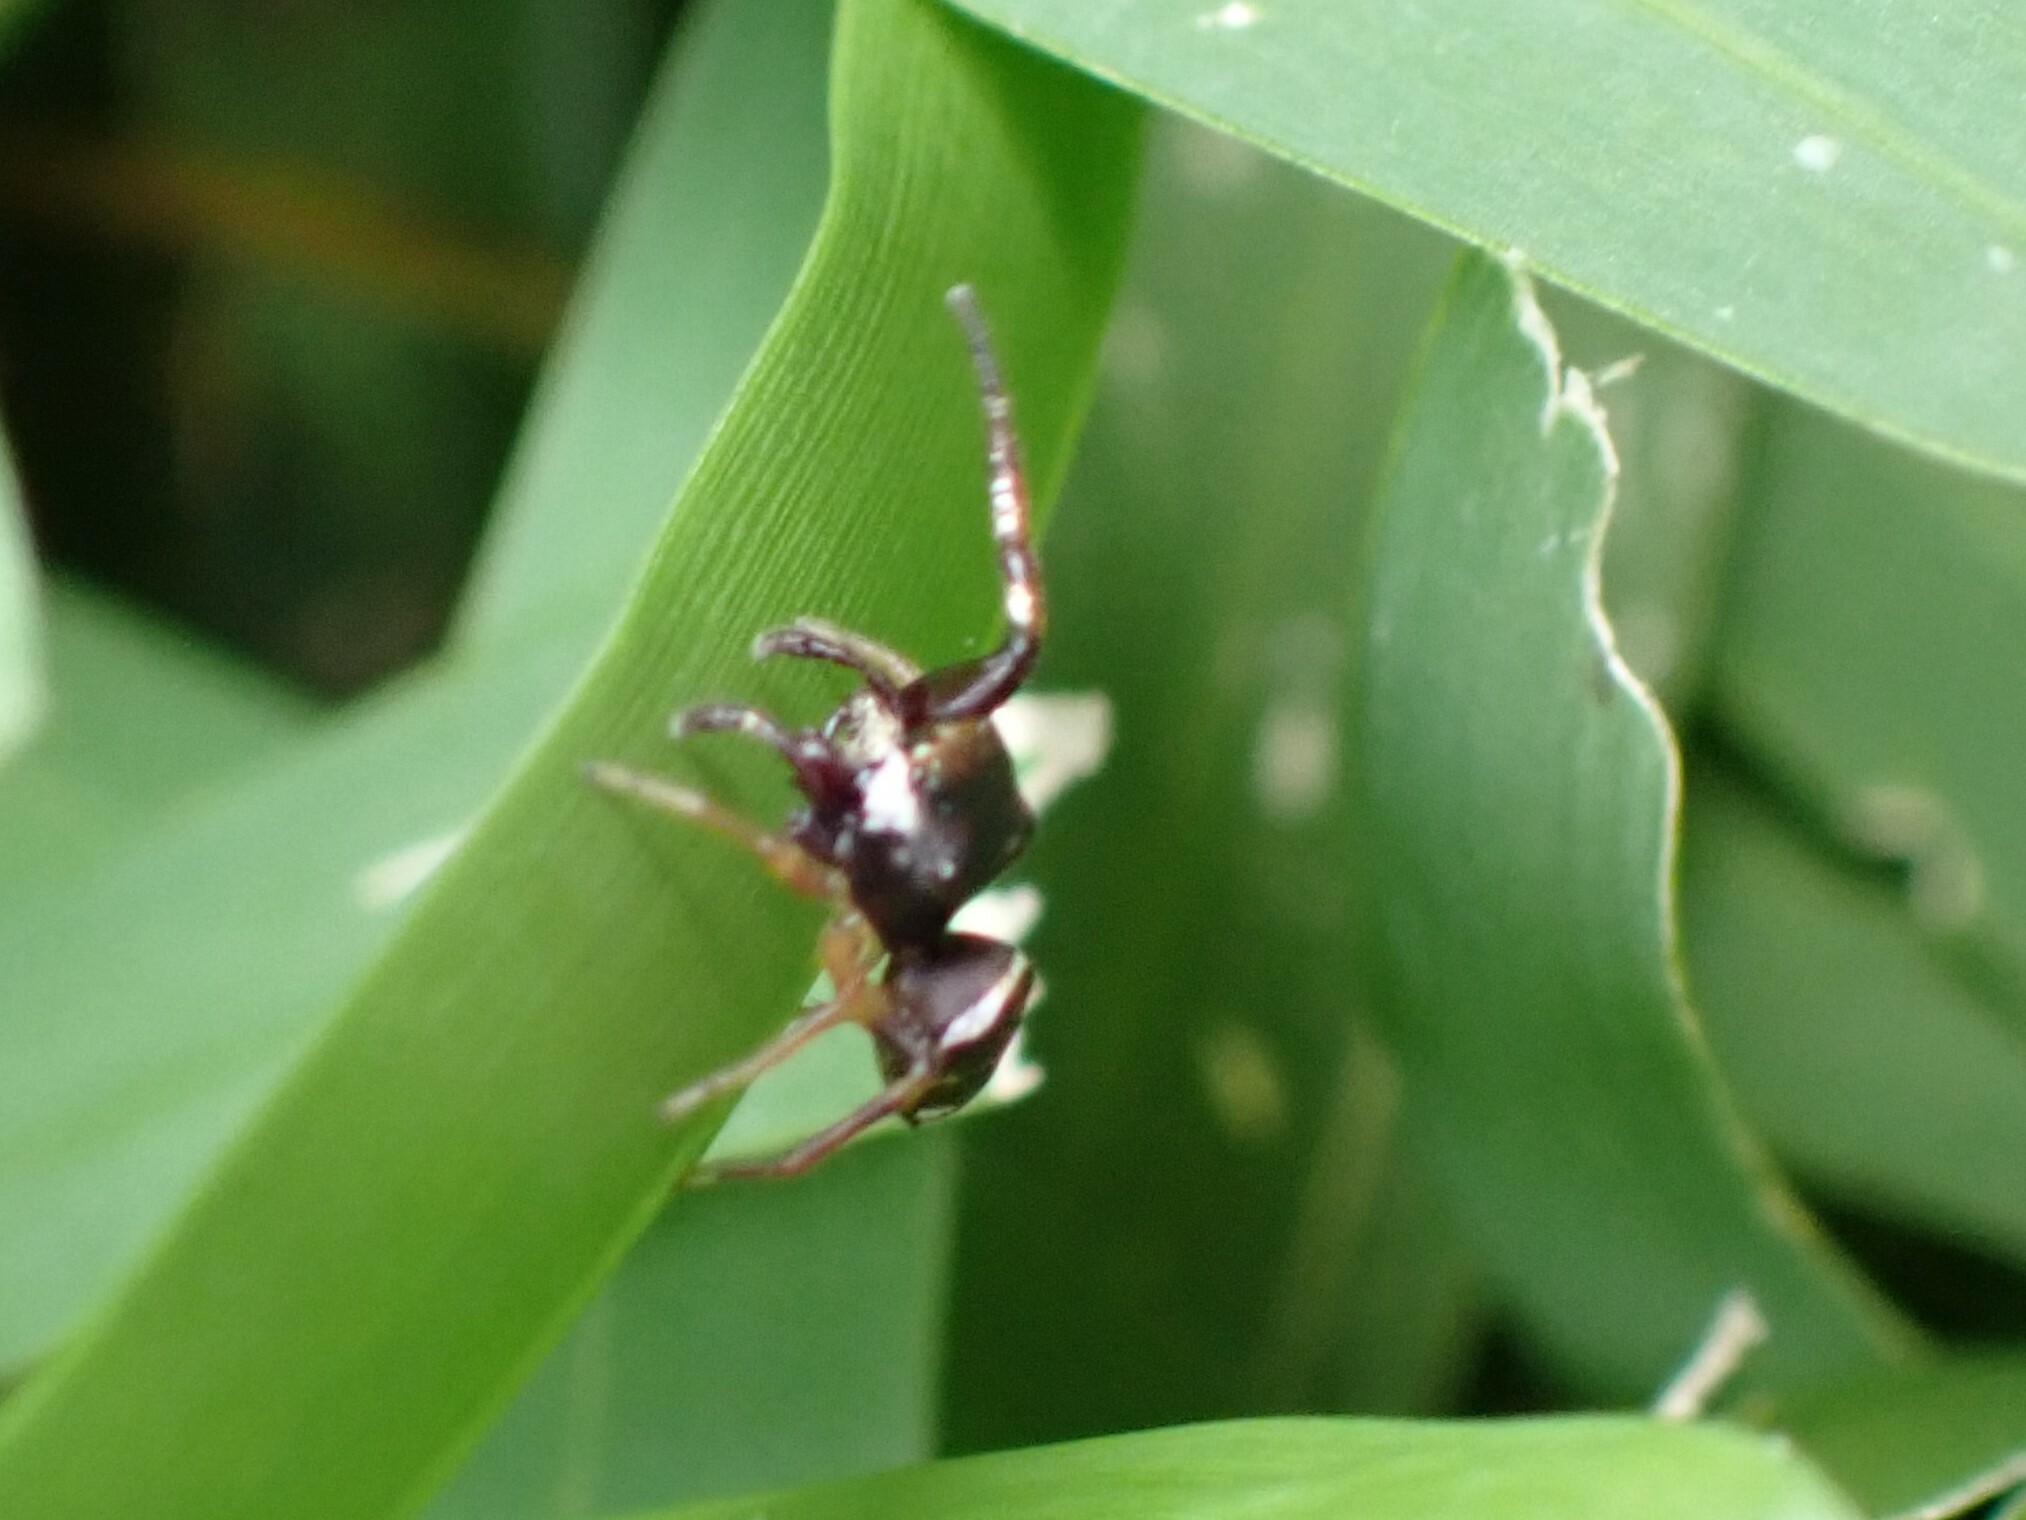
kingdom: Animalia
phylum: Arthropoda
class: Arachnida
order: Araneae
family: Salticidae
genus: Zygoballus
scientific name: Zygoballus rufipes
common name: Jumping spiders
